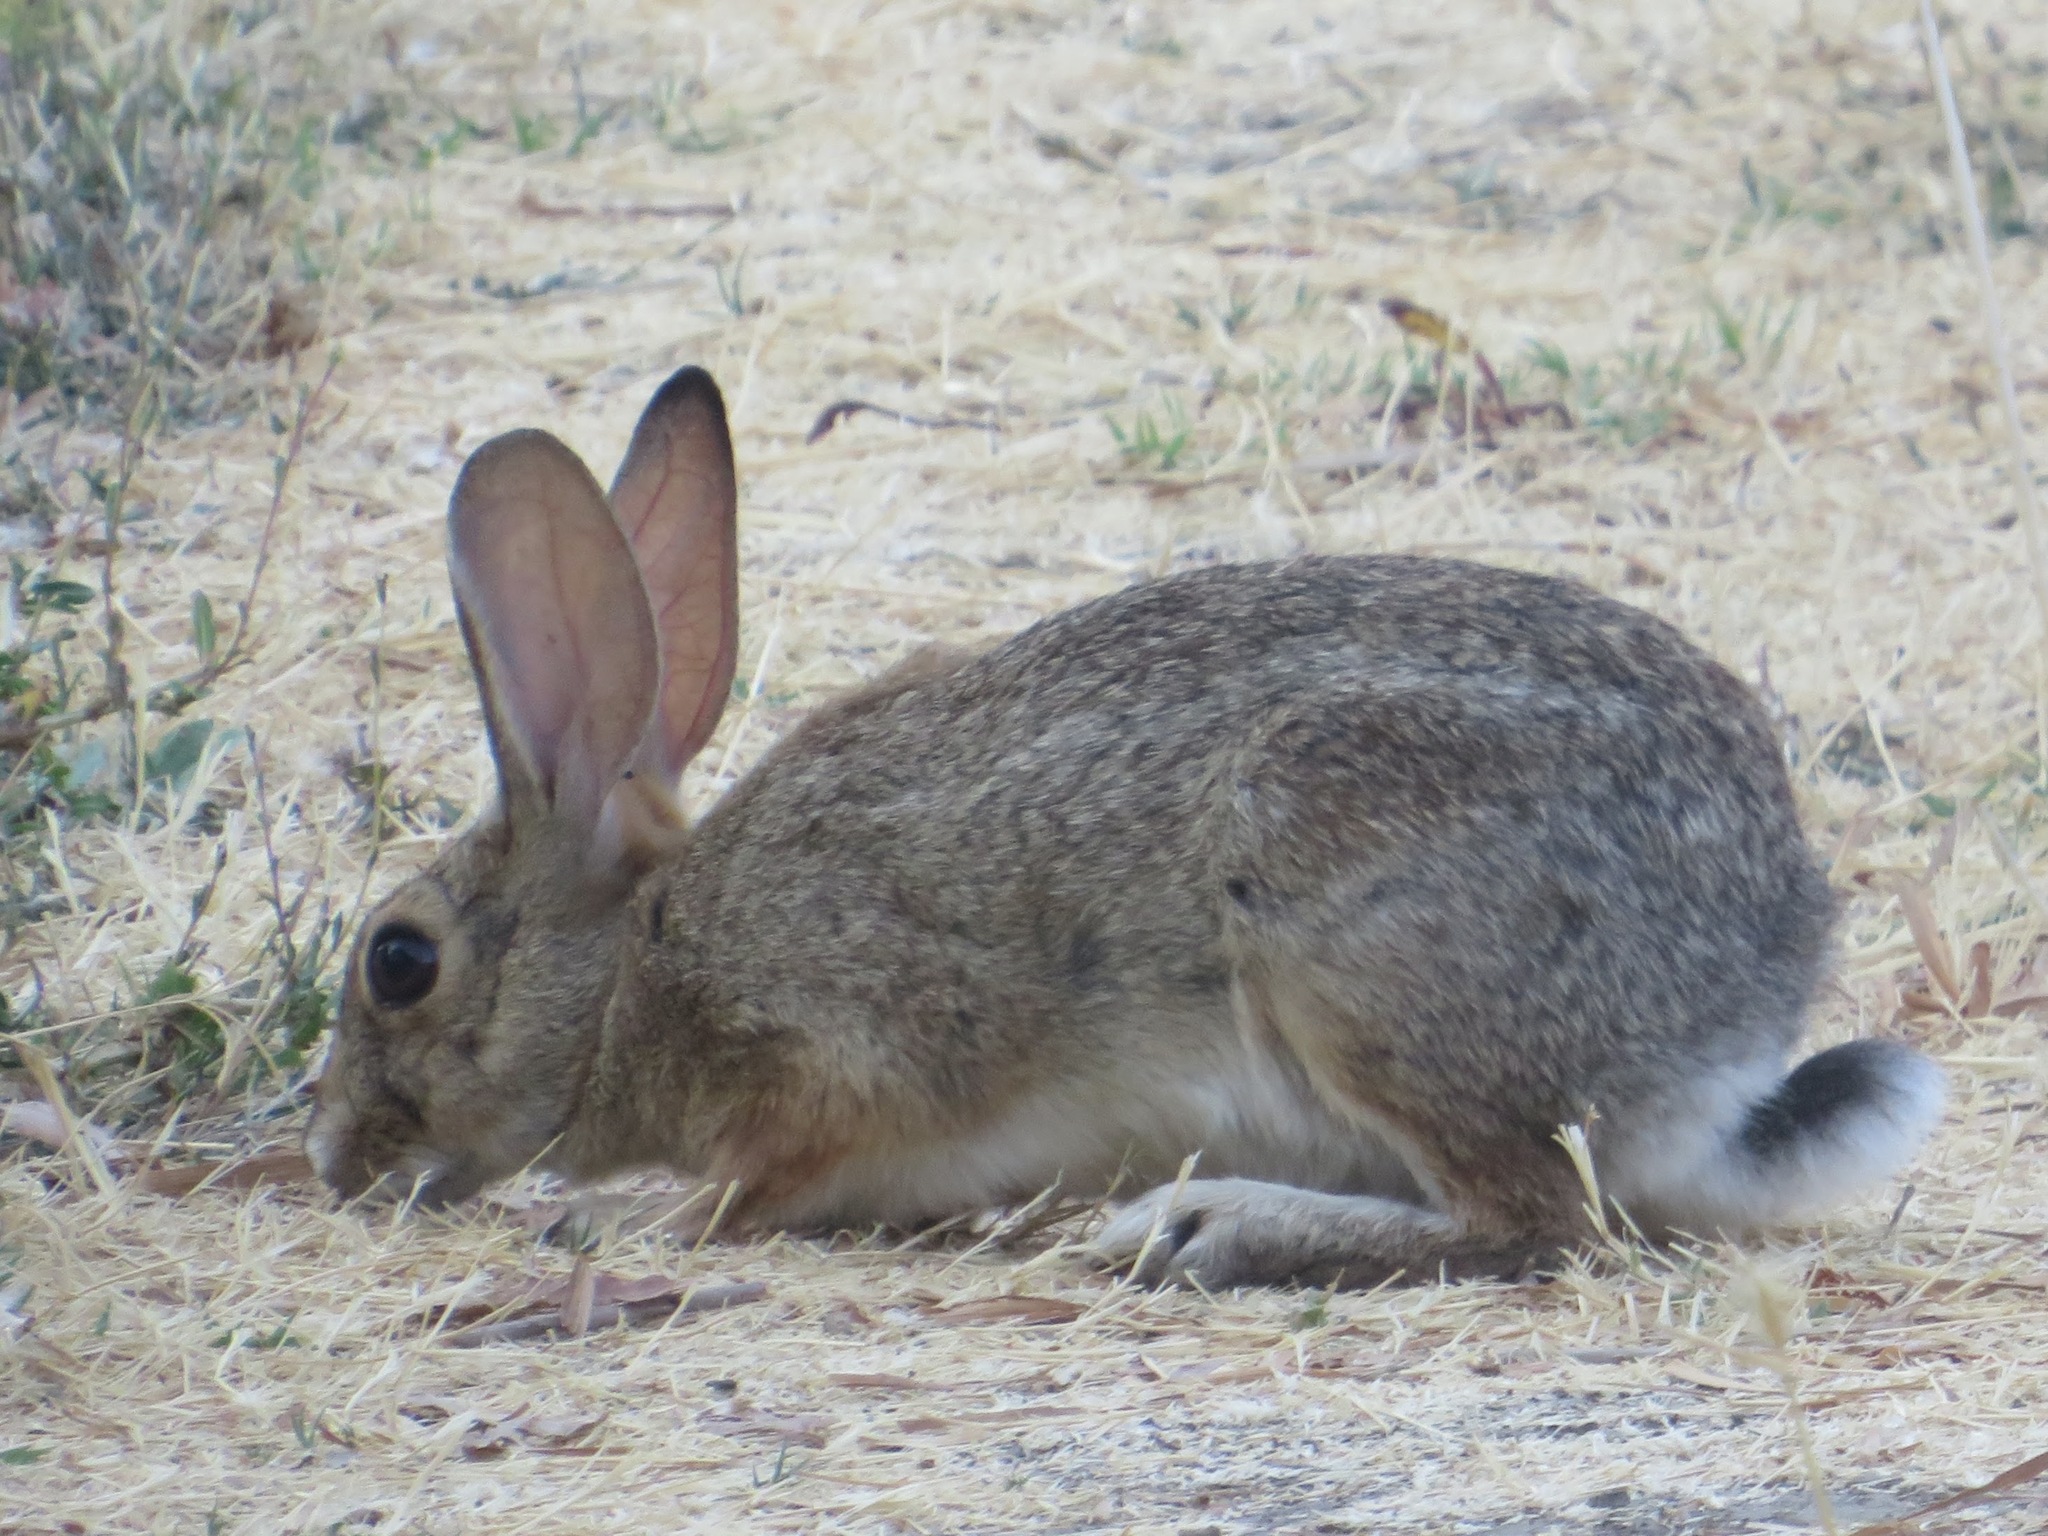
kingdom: Animalia
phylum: Chordata
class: Mammalia
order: Lagomorpha
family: Leporidae
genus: Sylvilagus
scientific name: Sylvilagus audubonii
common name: Desert cottontail
